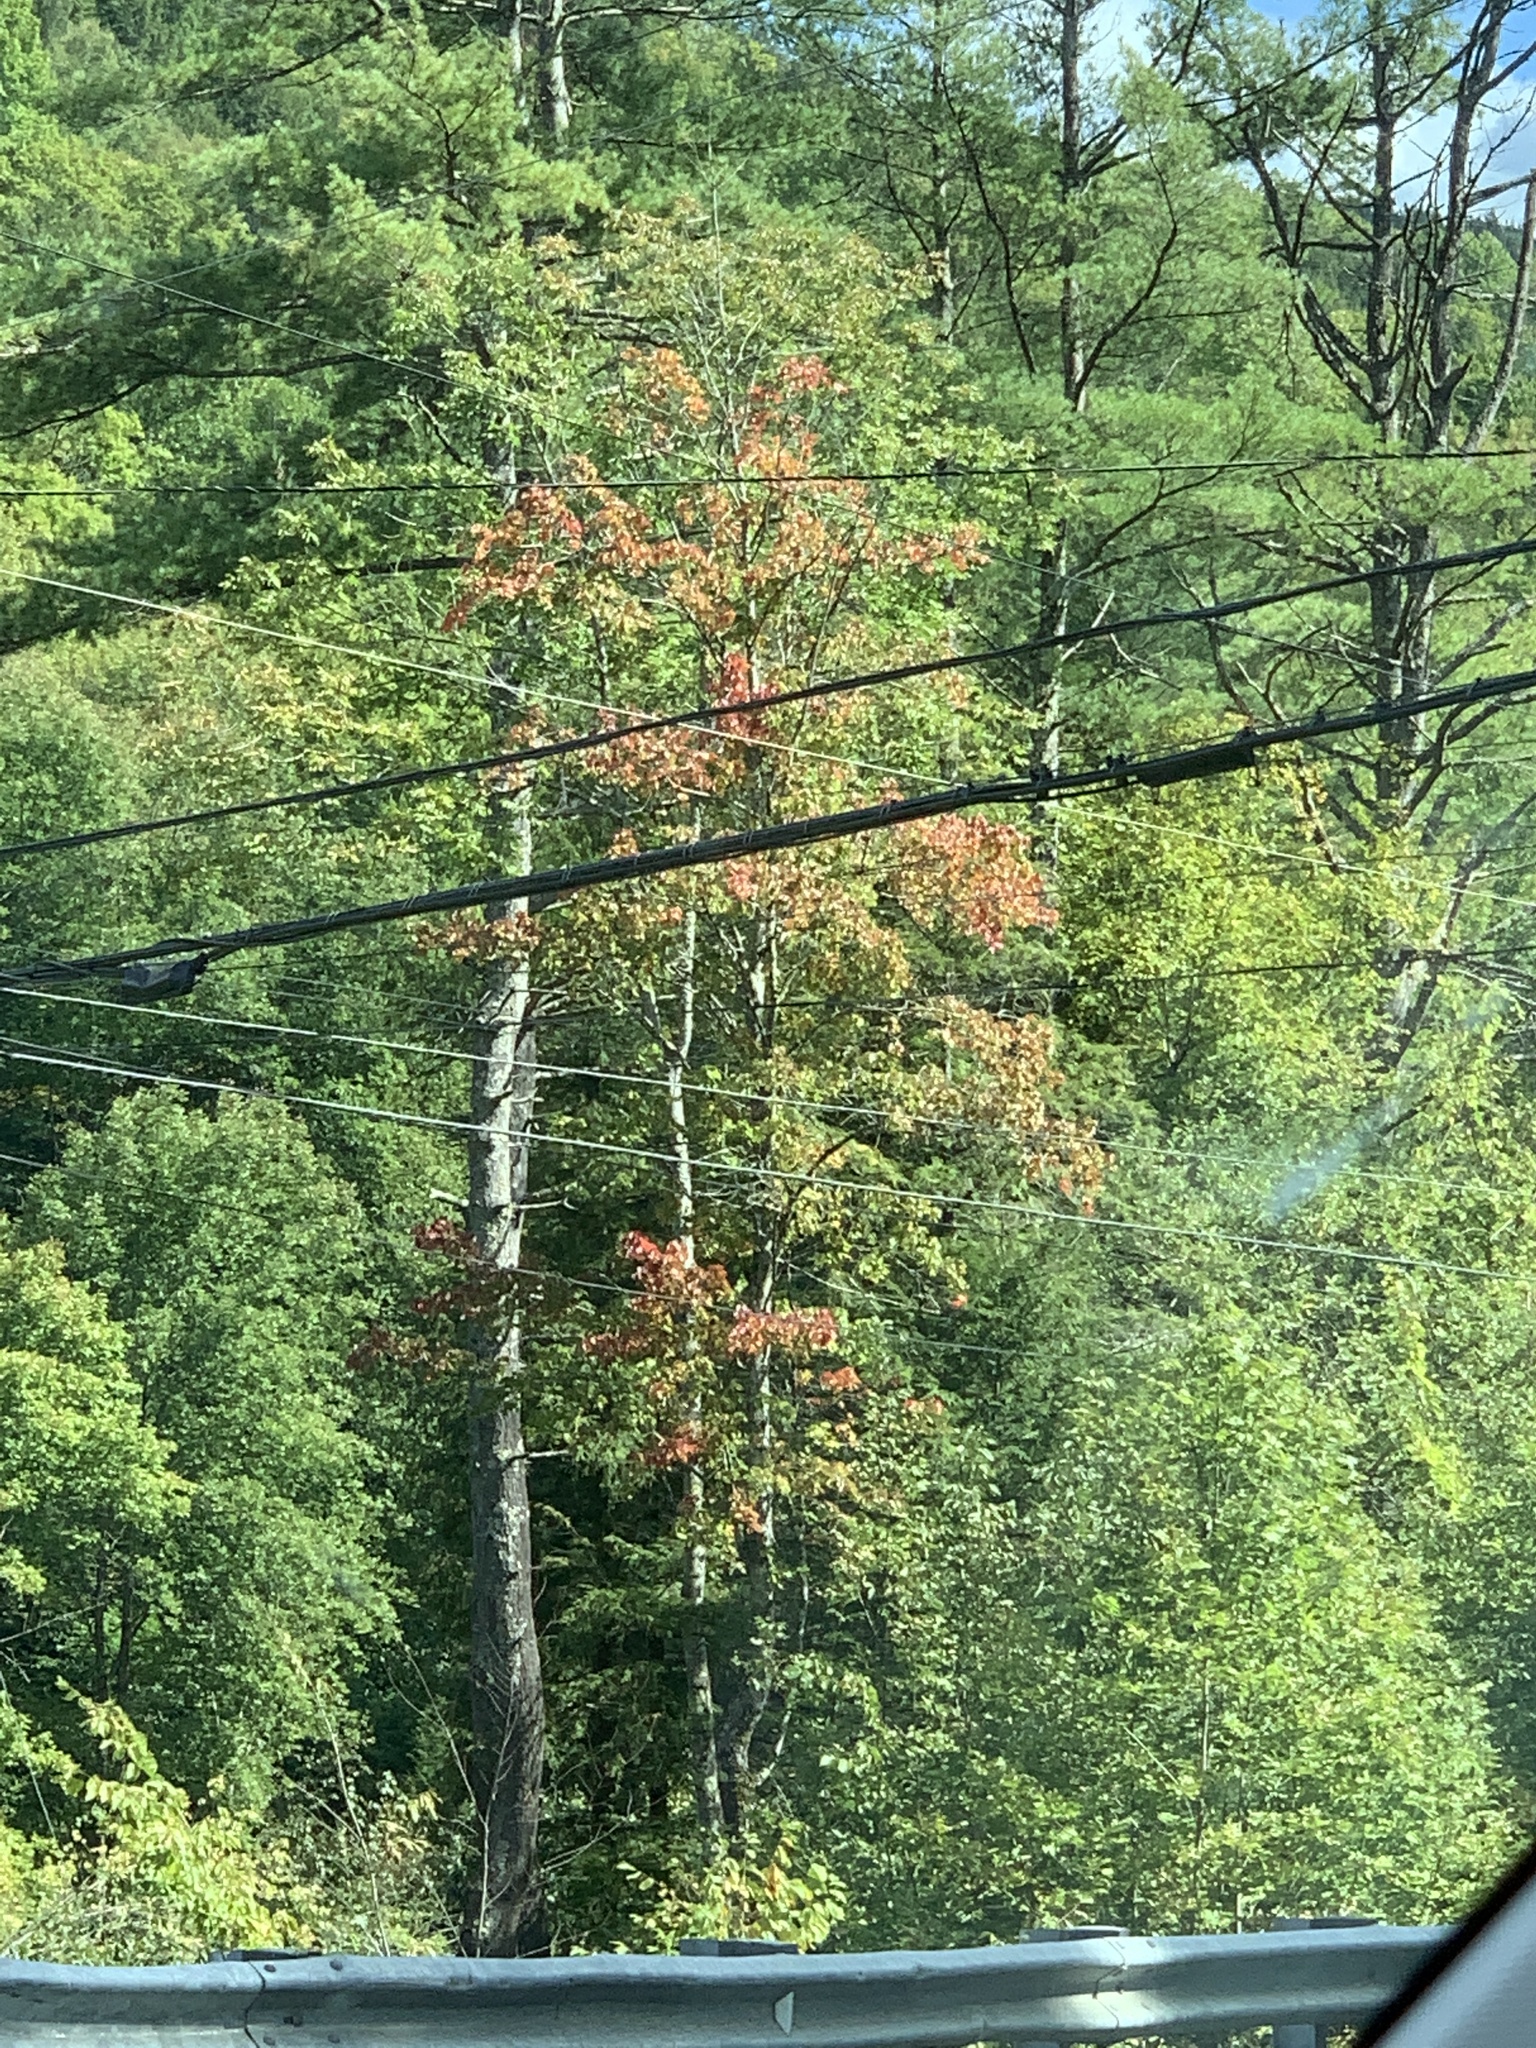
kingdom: Plantae
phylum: Tracheophyta
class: Magnoliopsida
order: Sapindales
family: Sapindaceae
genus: Acer
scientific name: Acer rubrum
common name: Red maple
